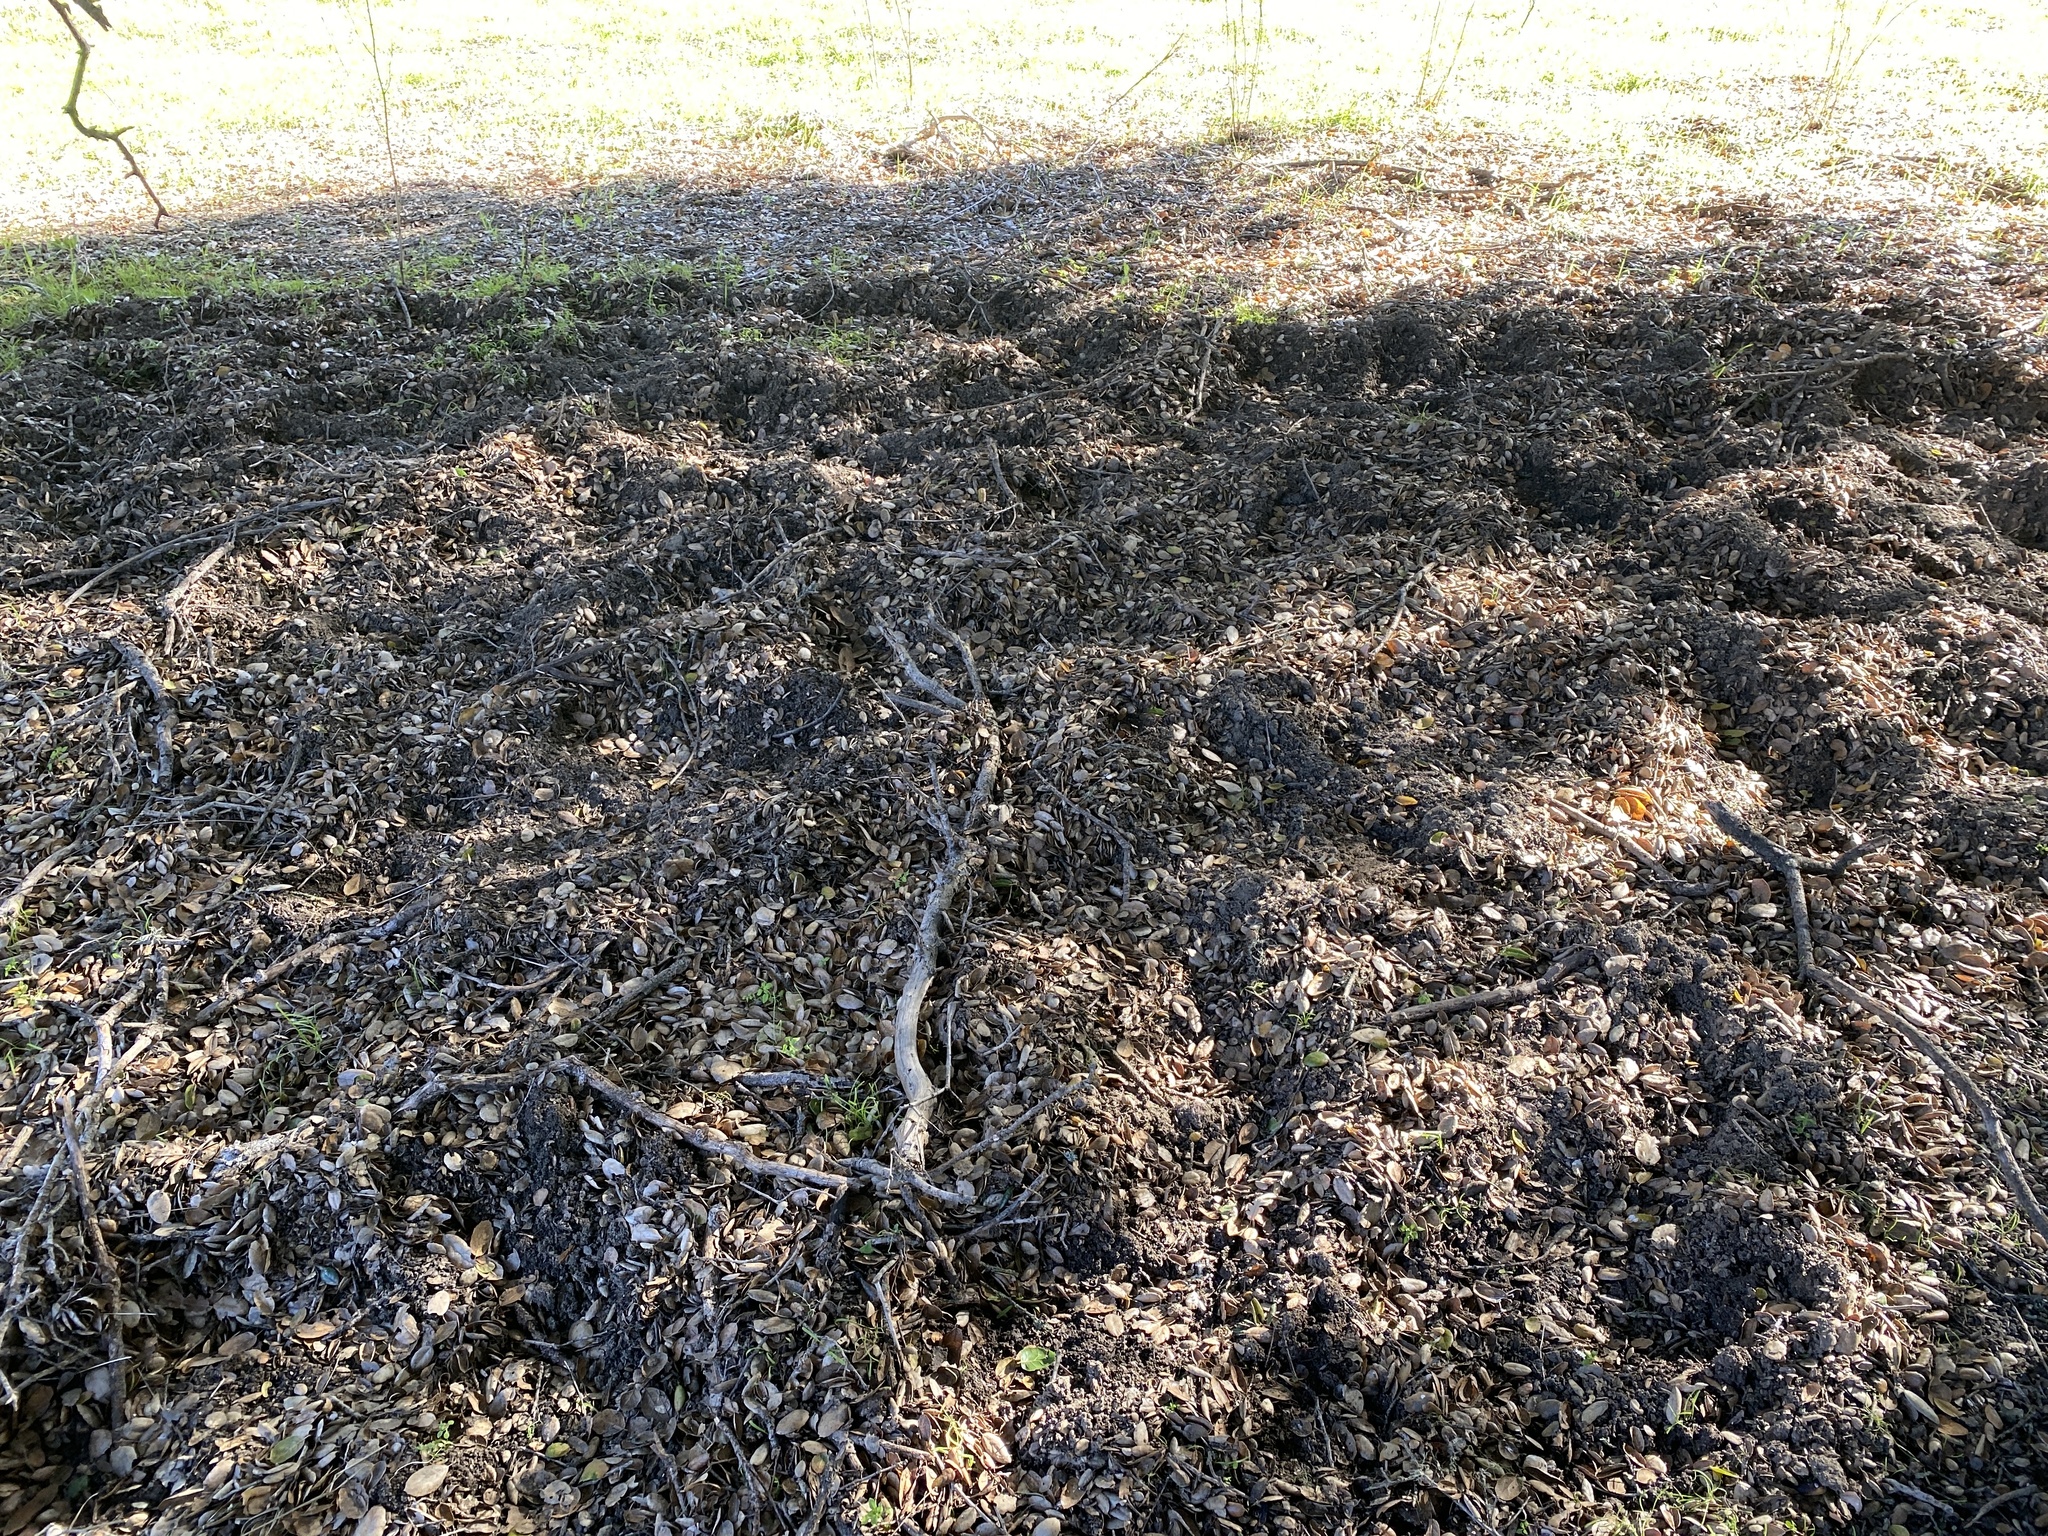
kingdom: Animalia
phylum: Chordata
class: Mammalia
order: Artiodactyla
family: Suidae
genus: Sus
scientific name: Sus scrofa
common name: Wild boar
